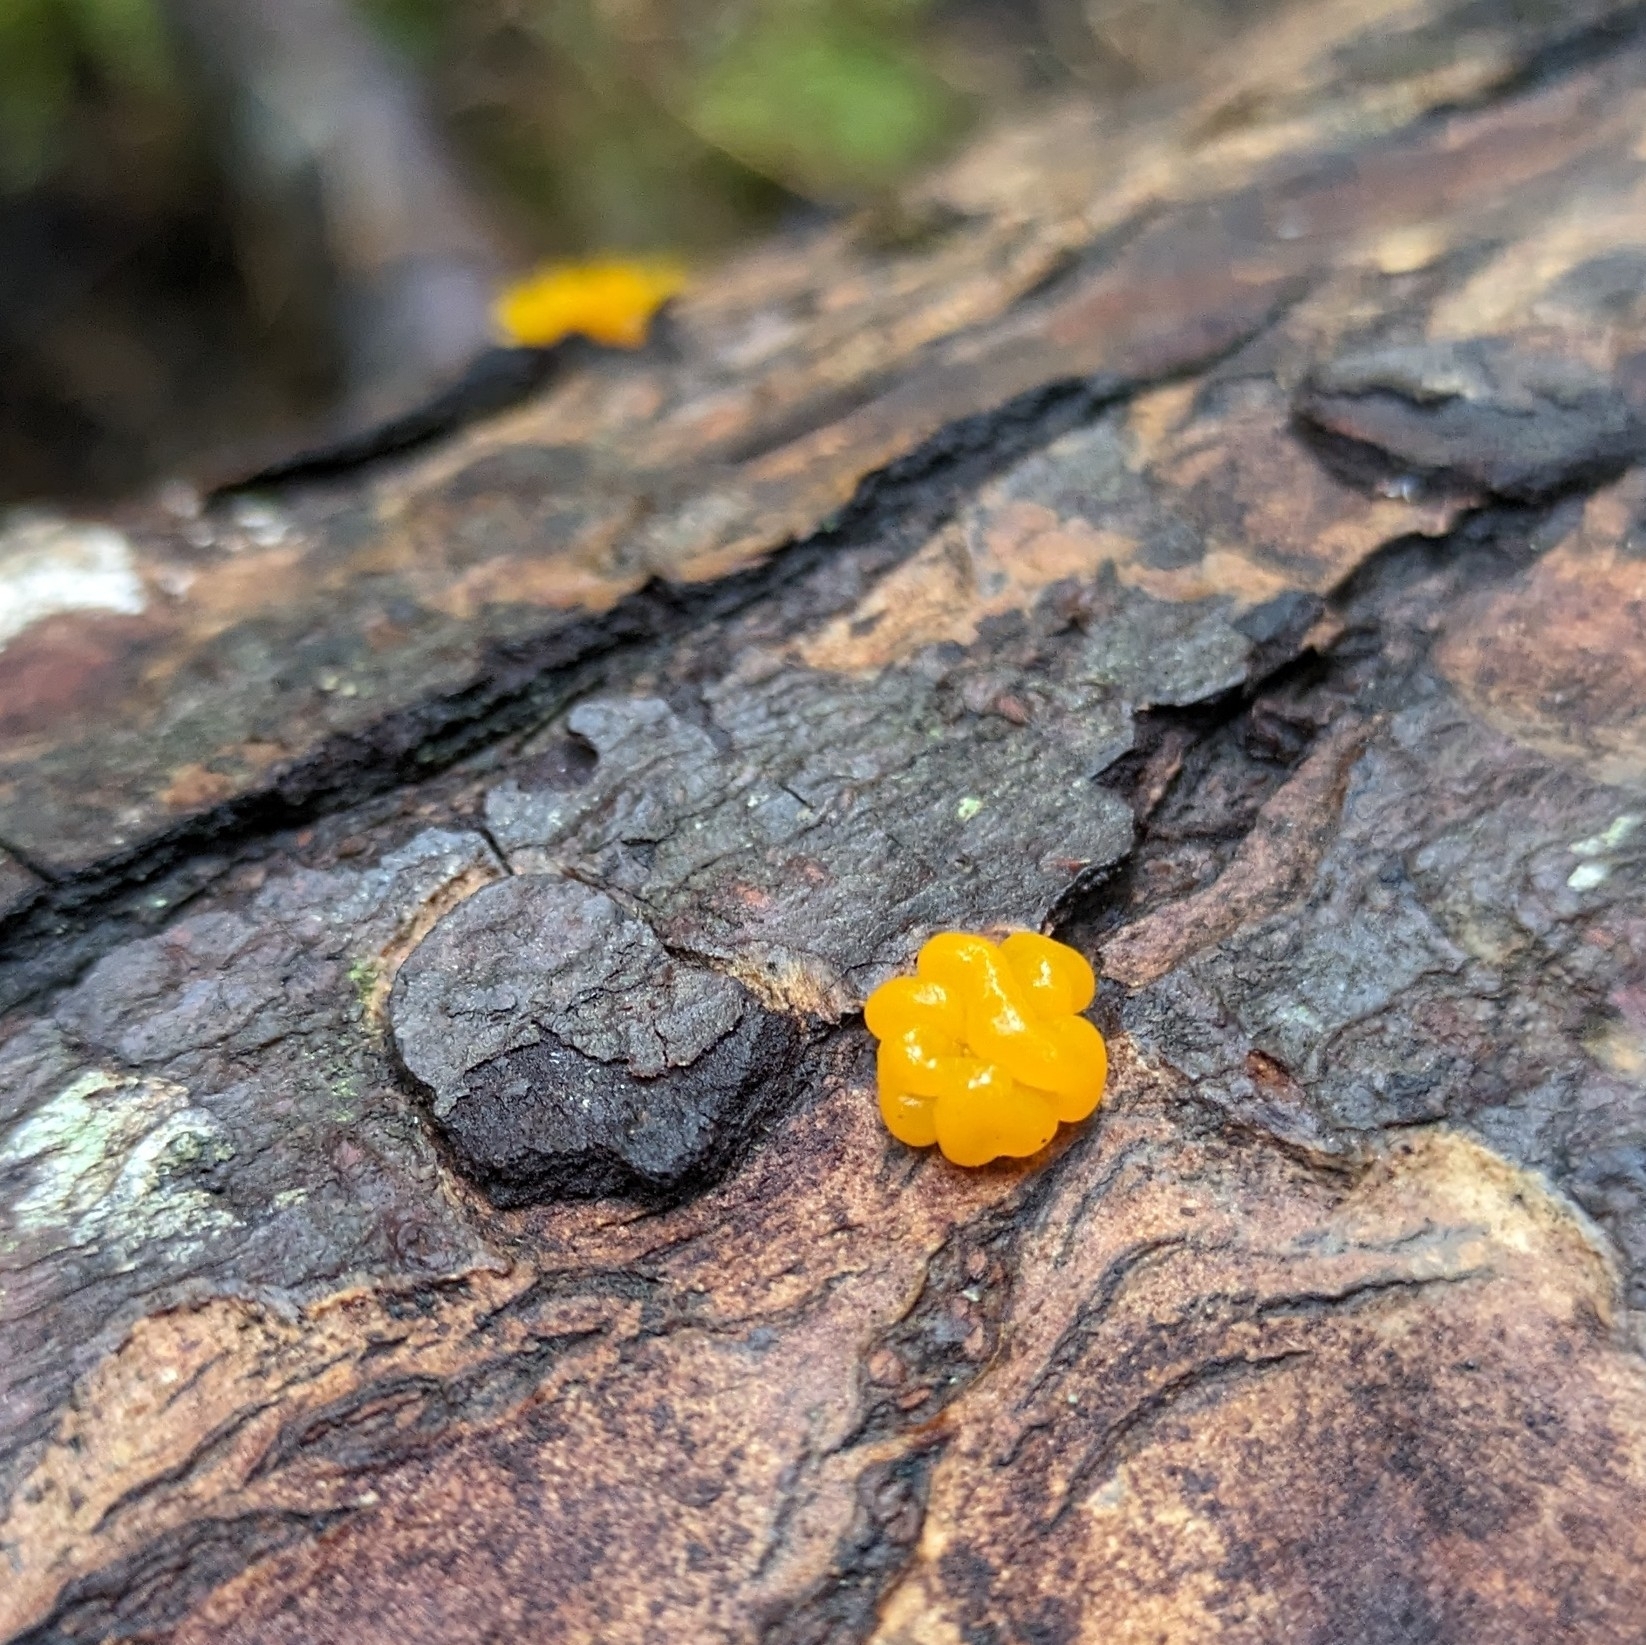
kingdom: Fungi
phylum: Basidiomycota
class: Dacrymycetes
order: Dacrymycetales
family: Dacrymycetaceae
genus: Dacrymyces
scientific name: Dacrymyces chrysospermus
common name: Orange jelly spot
